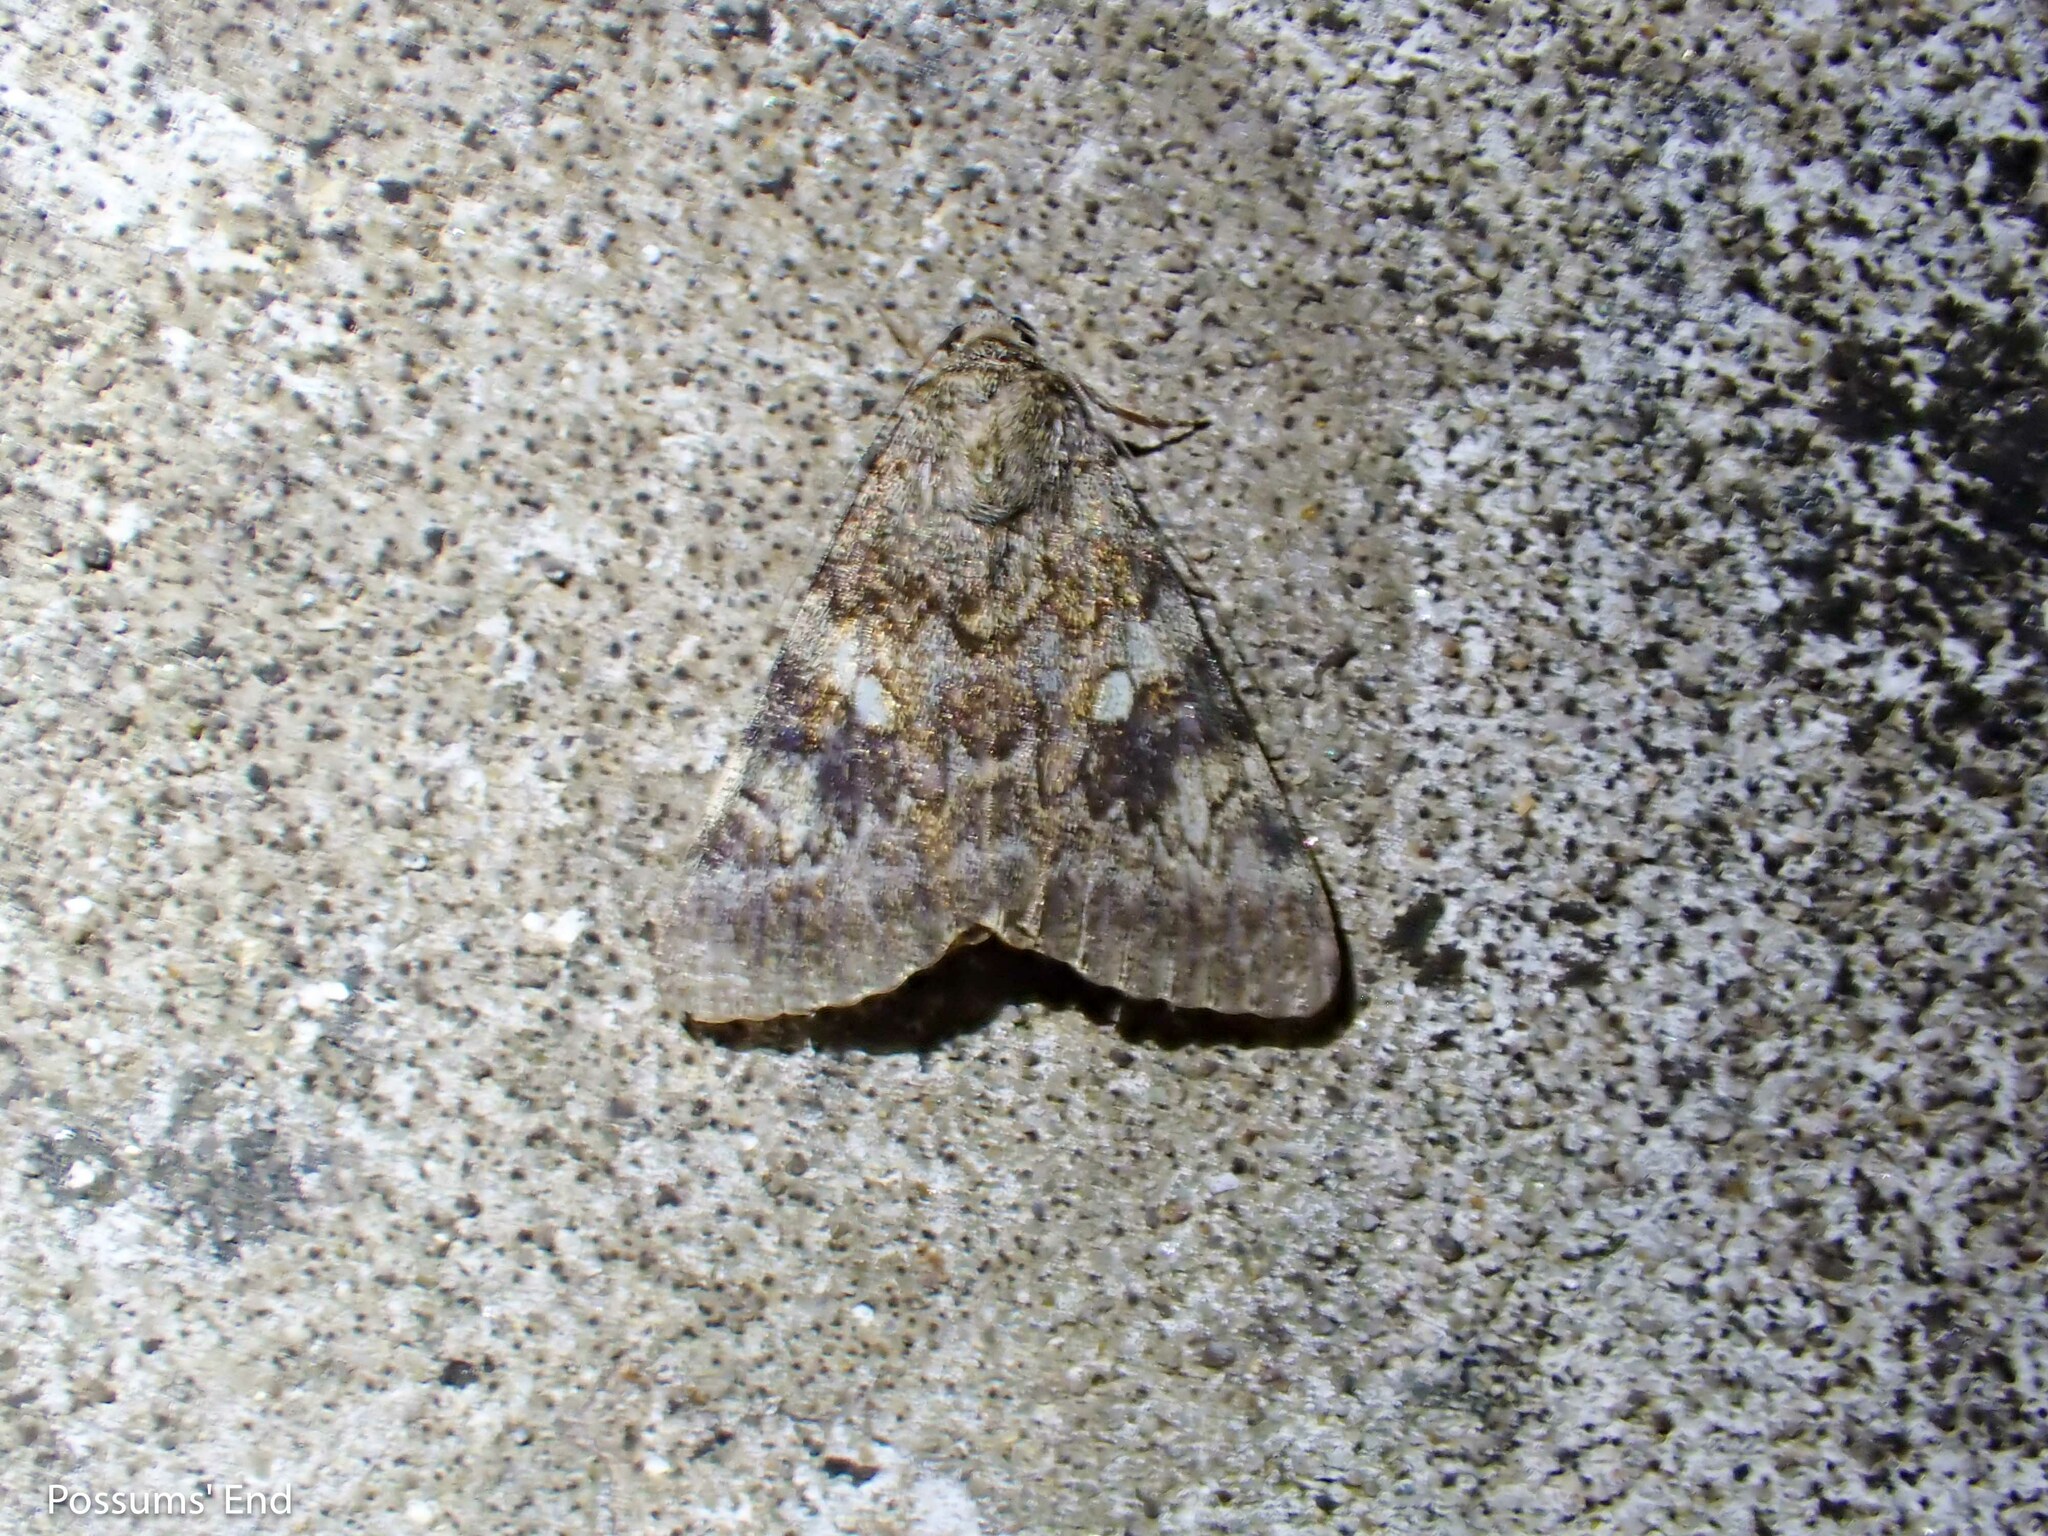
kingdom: Animalia
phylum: Arthropoda
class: Insecta
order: Lepidoptera
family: Erebidae
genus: Catocala
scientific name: Catocala nymphaea
